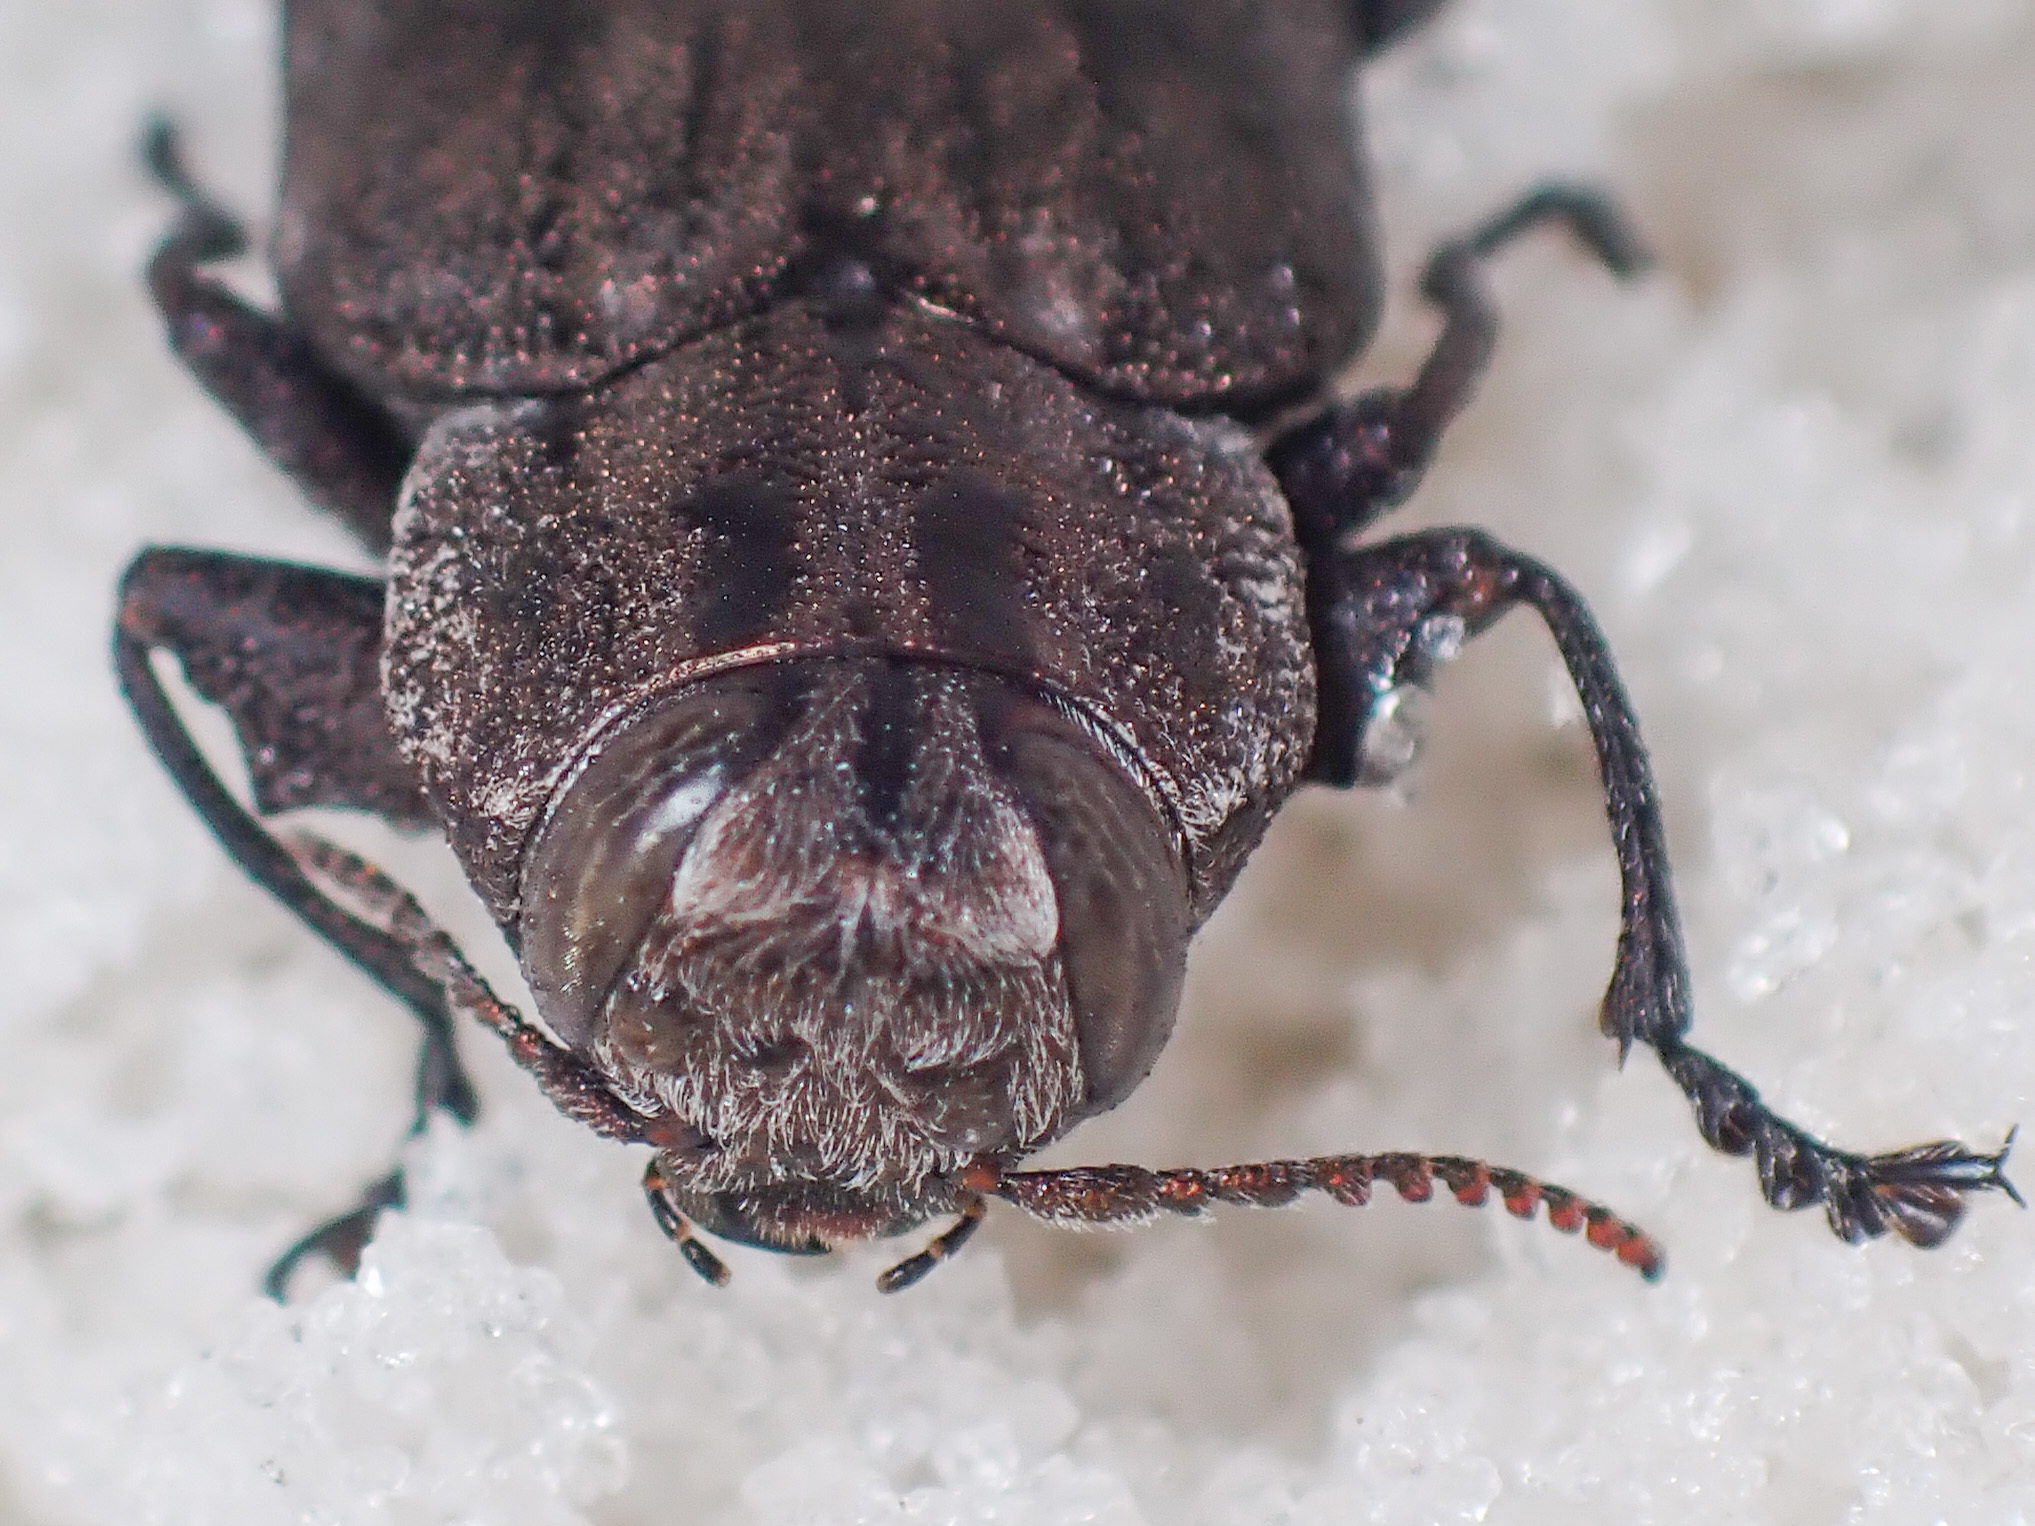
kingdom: Animalia
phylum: Arthropoda
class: Insecta
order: Coleoptera
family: Buprestidae
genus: Chrysobothris
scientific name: Chrysobothris dentipes
